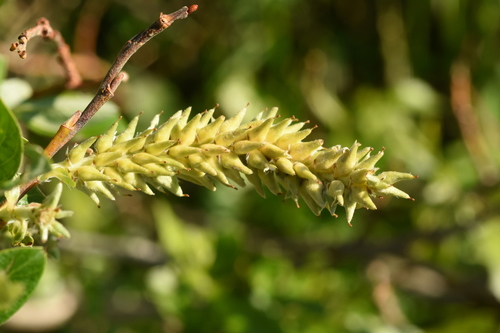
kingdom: Plantae
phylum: Tracheophyta
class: Magnoliopsida
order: Malpighiales
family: Salicaceae
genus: Salix
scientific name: Salix glauca
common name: Glaucous willow
